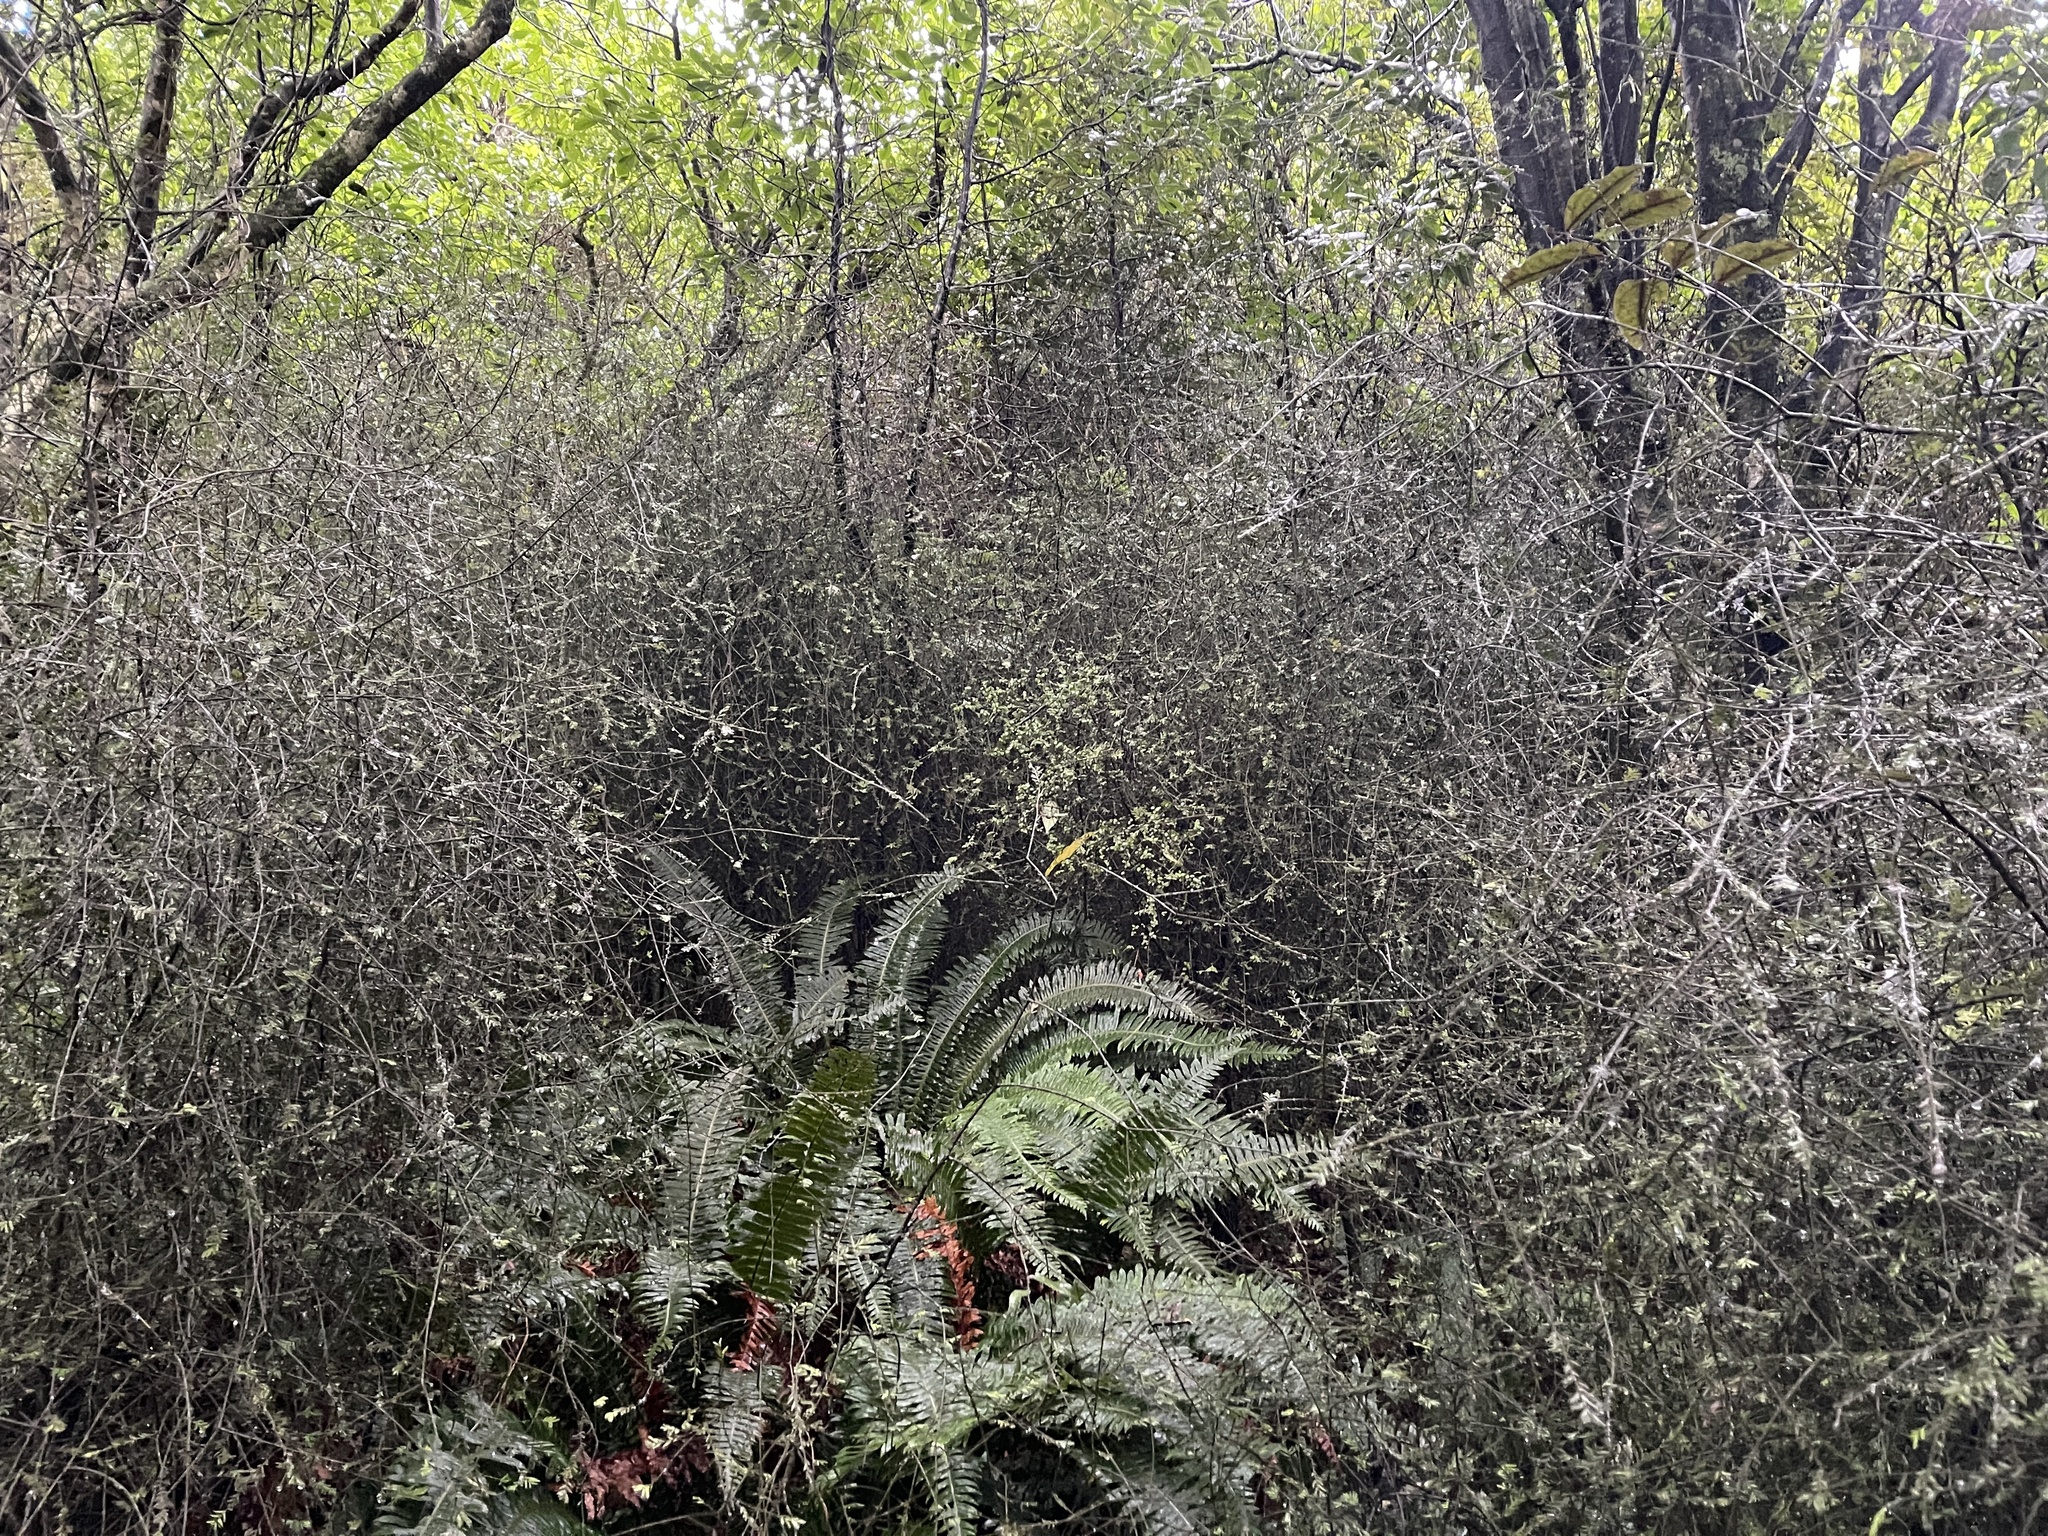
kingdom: Plantae
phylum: Tracheophyta
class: Pinopsida
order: Pinales
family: Podocarpaceae
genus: Prumnopitys
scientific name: Prumnopitys taxifolia
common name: Matai
